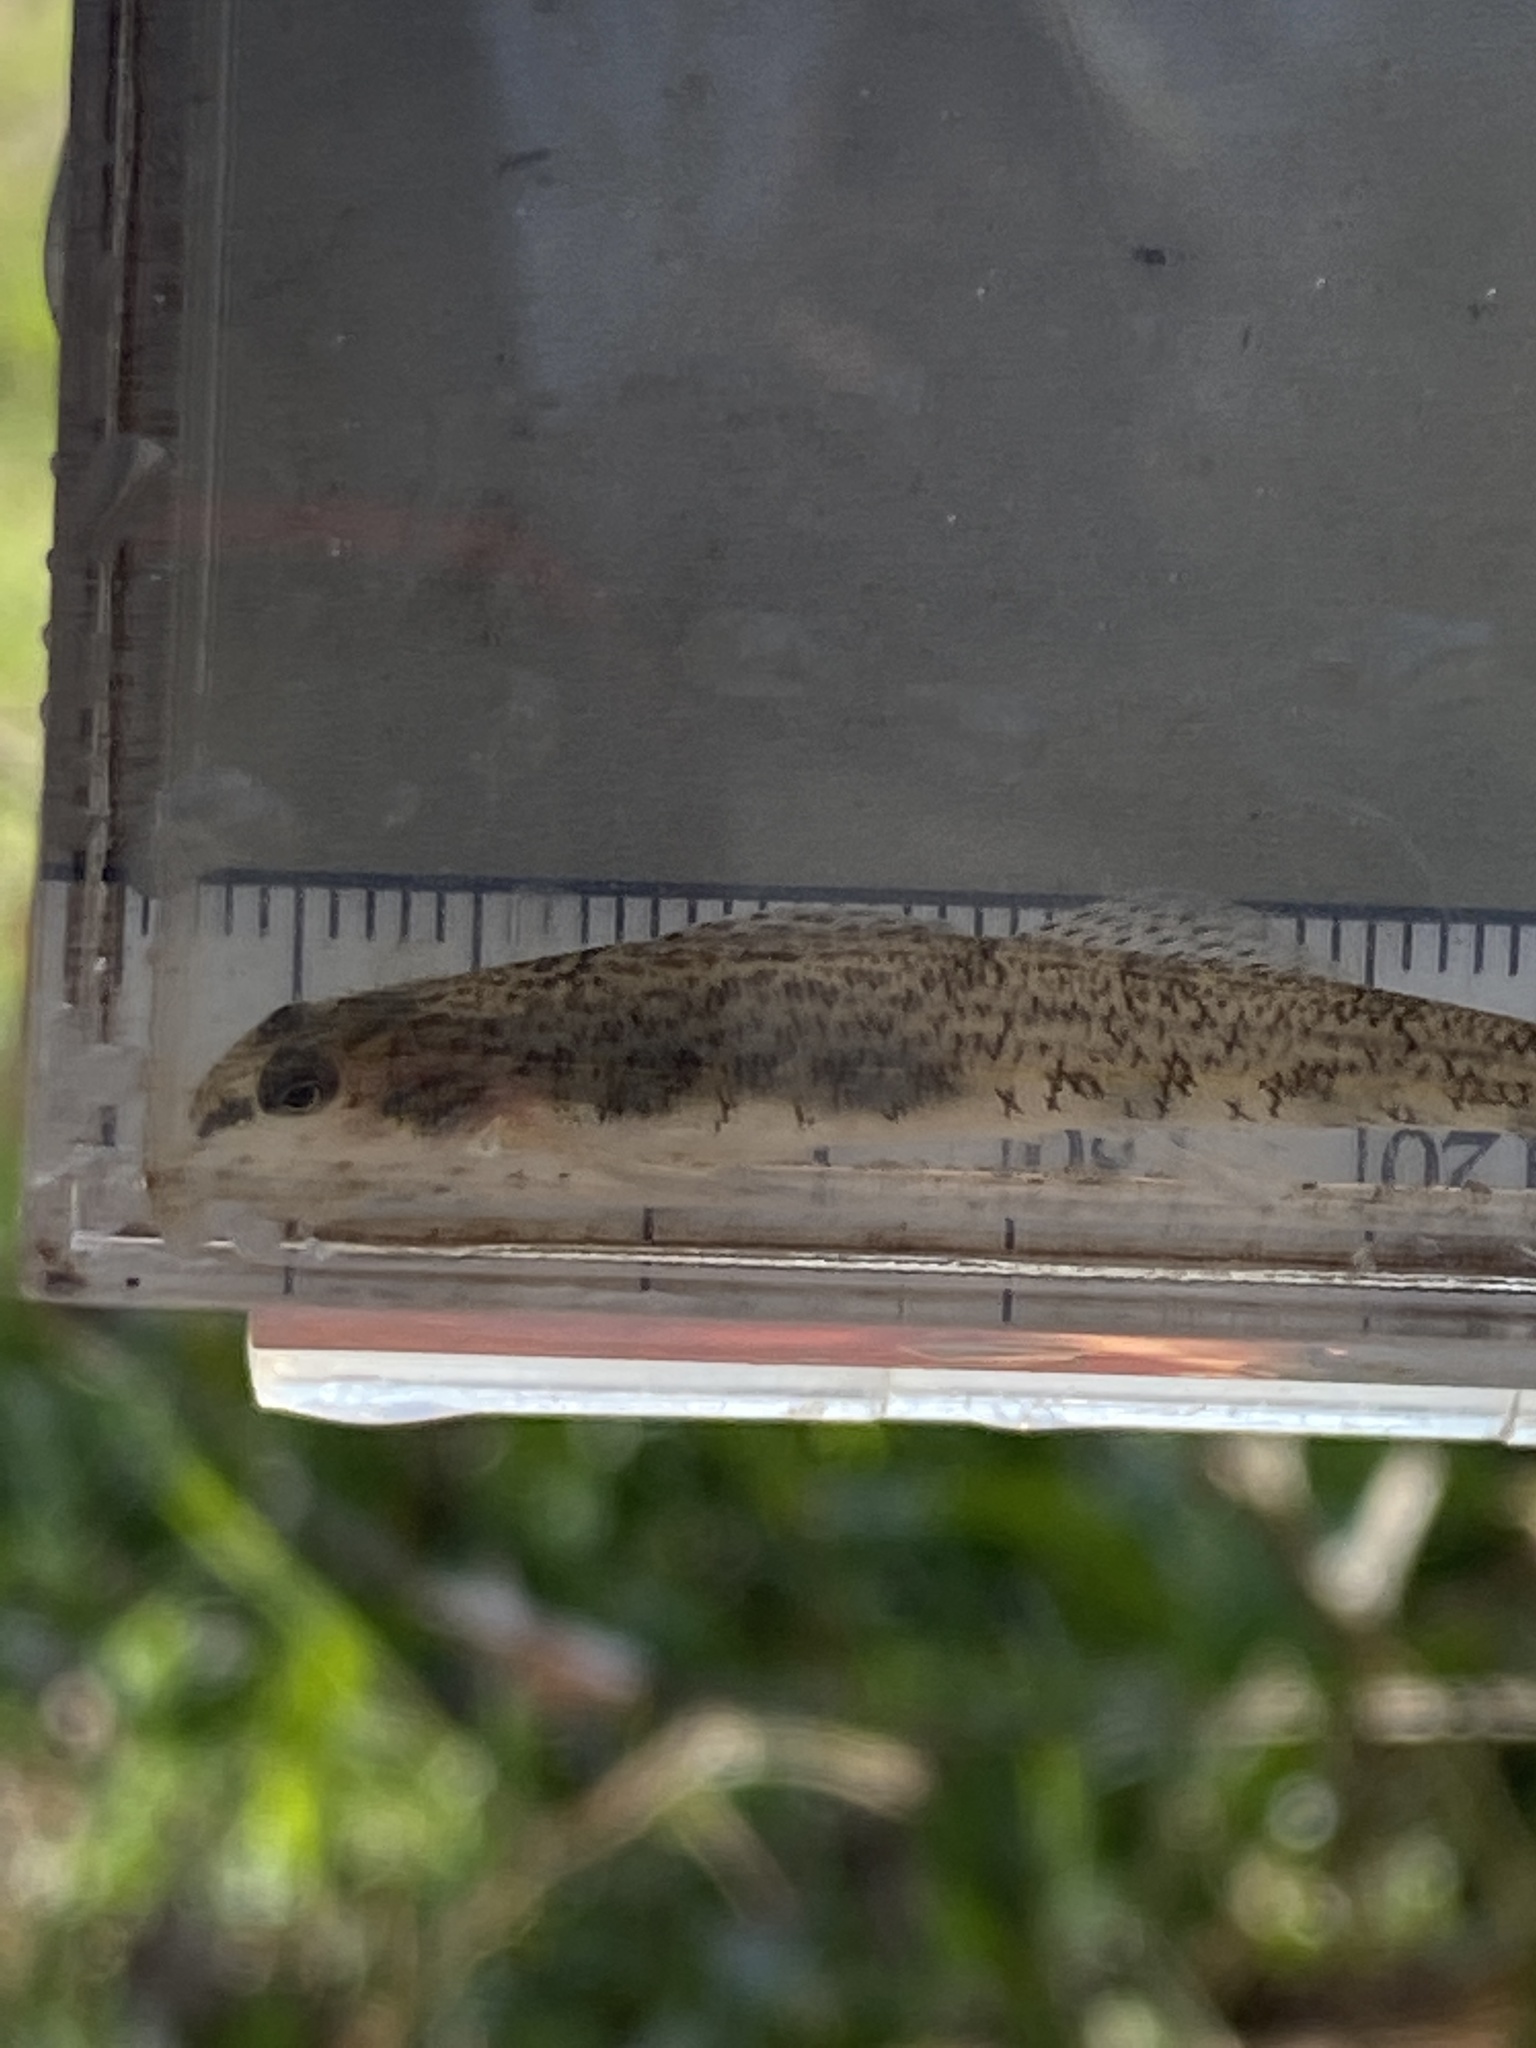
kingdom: Animalia
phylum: Chordata
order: Perciformes
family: Percidae
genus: Etheostoma
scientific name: Etheostoma nigrum
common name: Johnny darter
